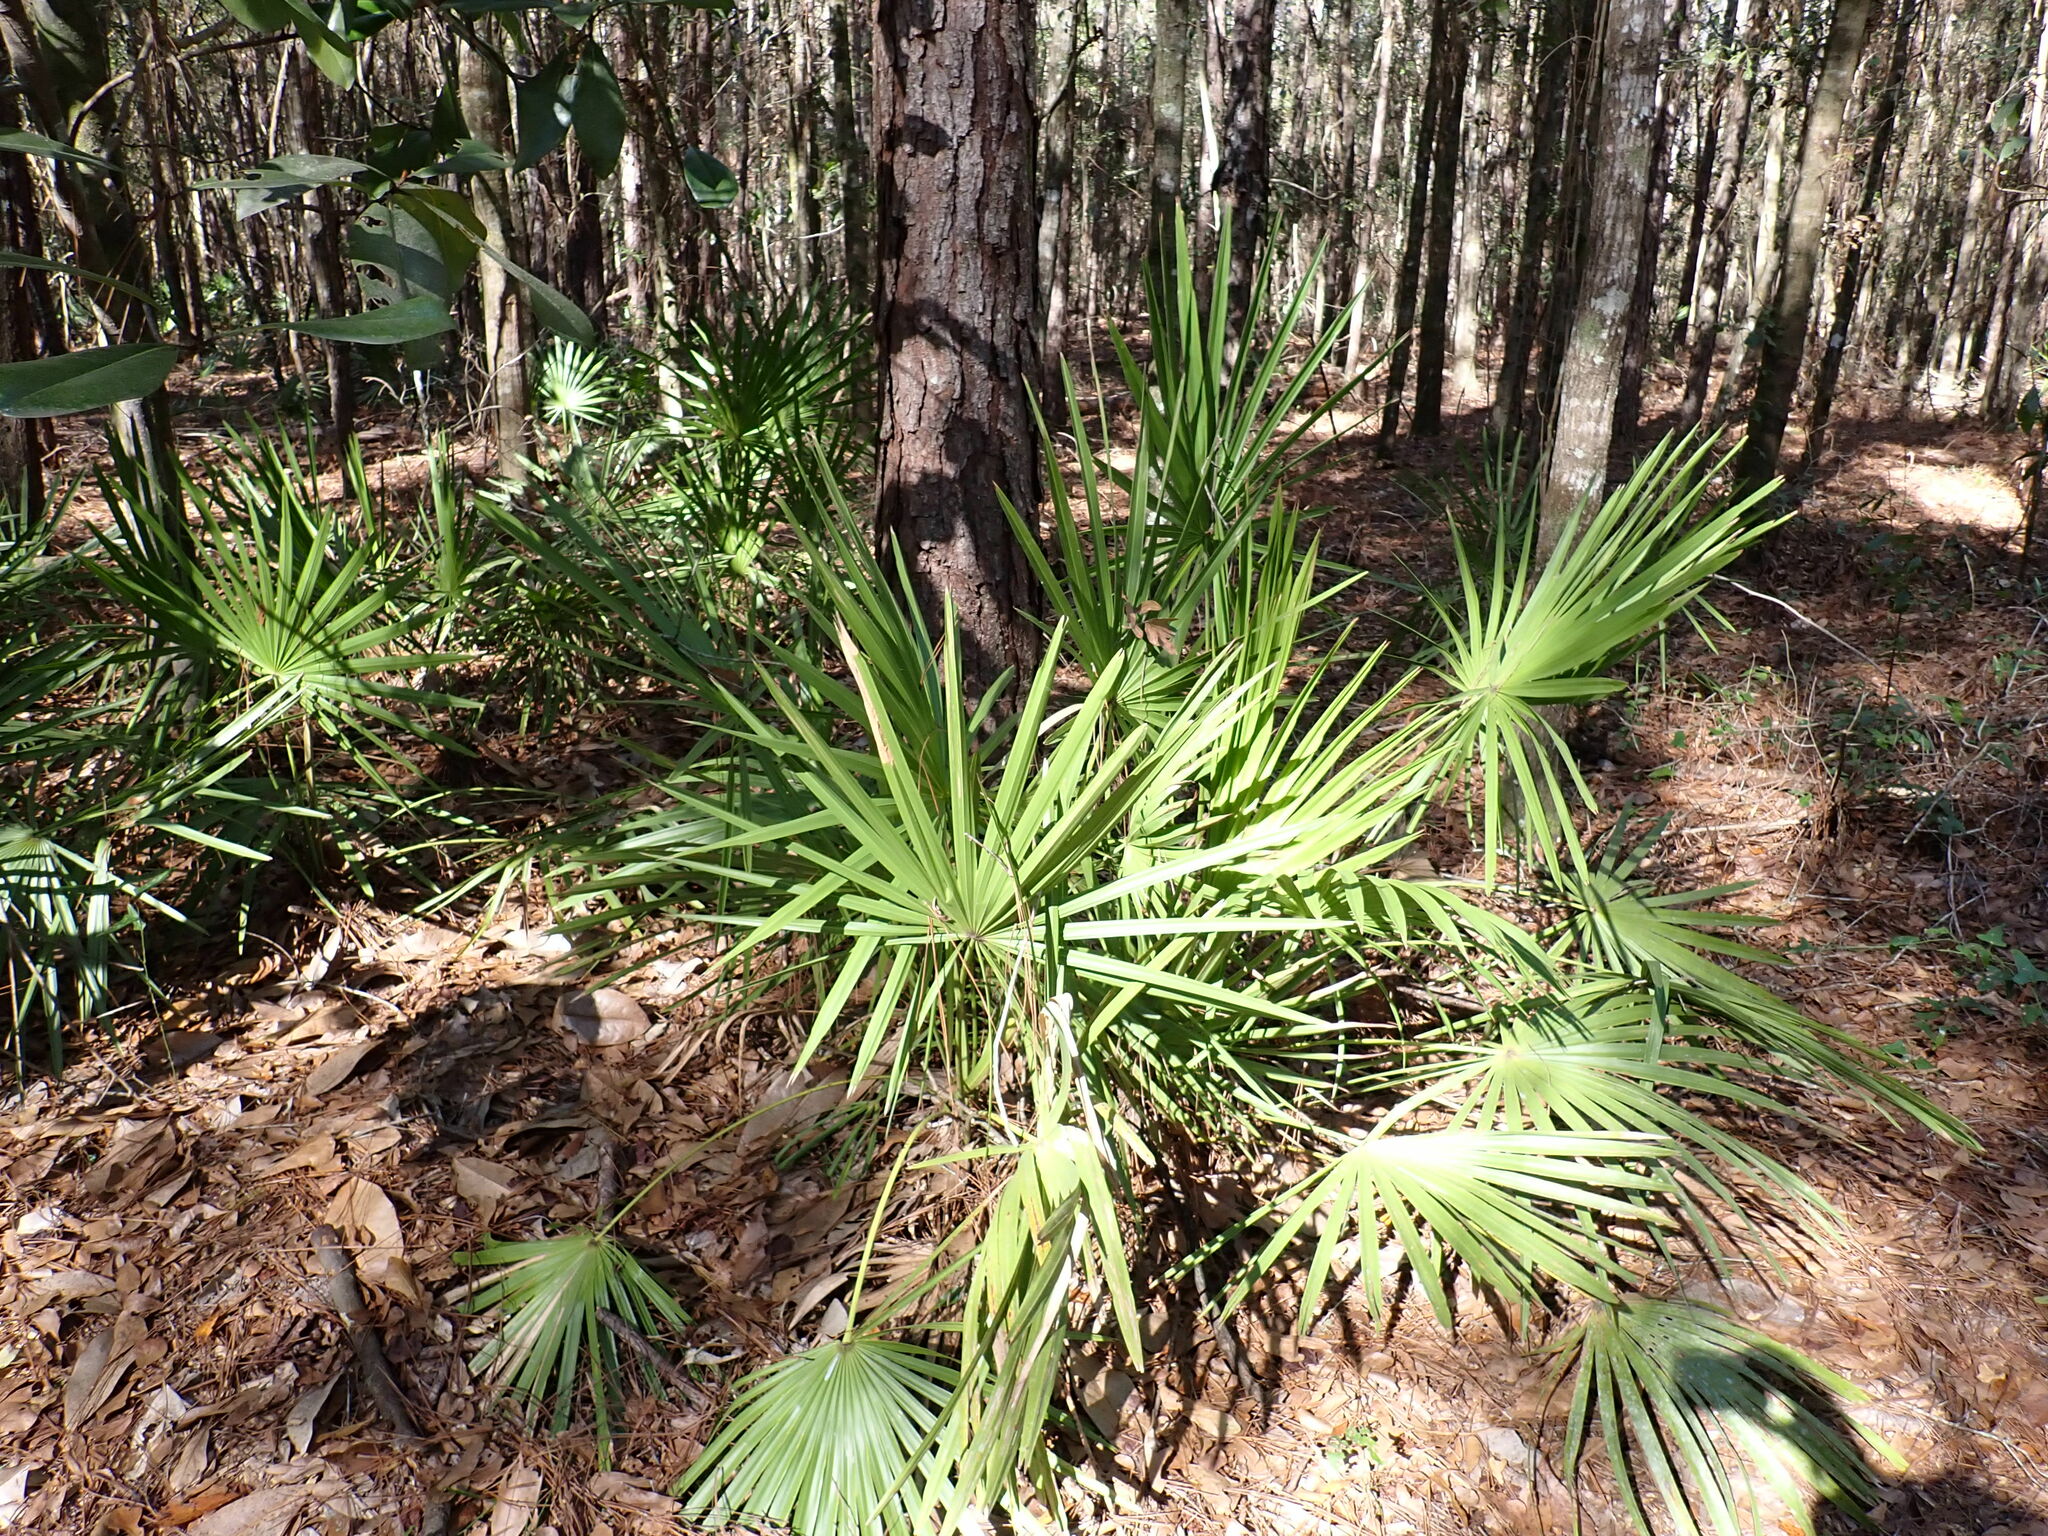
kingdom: Plantae
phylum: Tracheophyta
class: Liliopsida
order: Arecales
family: Arecaceae
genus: Serenoa
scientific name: Serenoa repens
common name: Saw-palmetto
